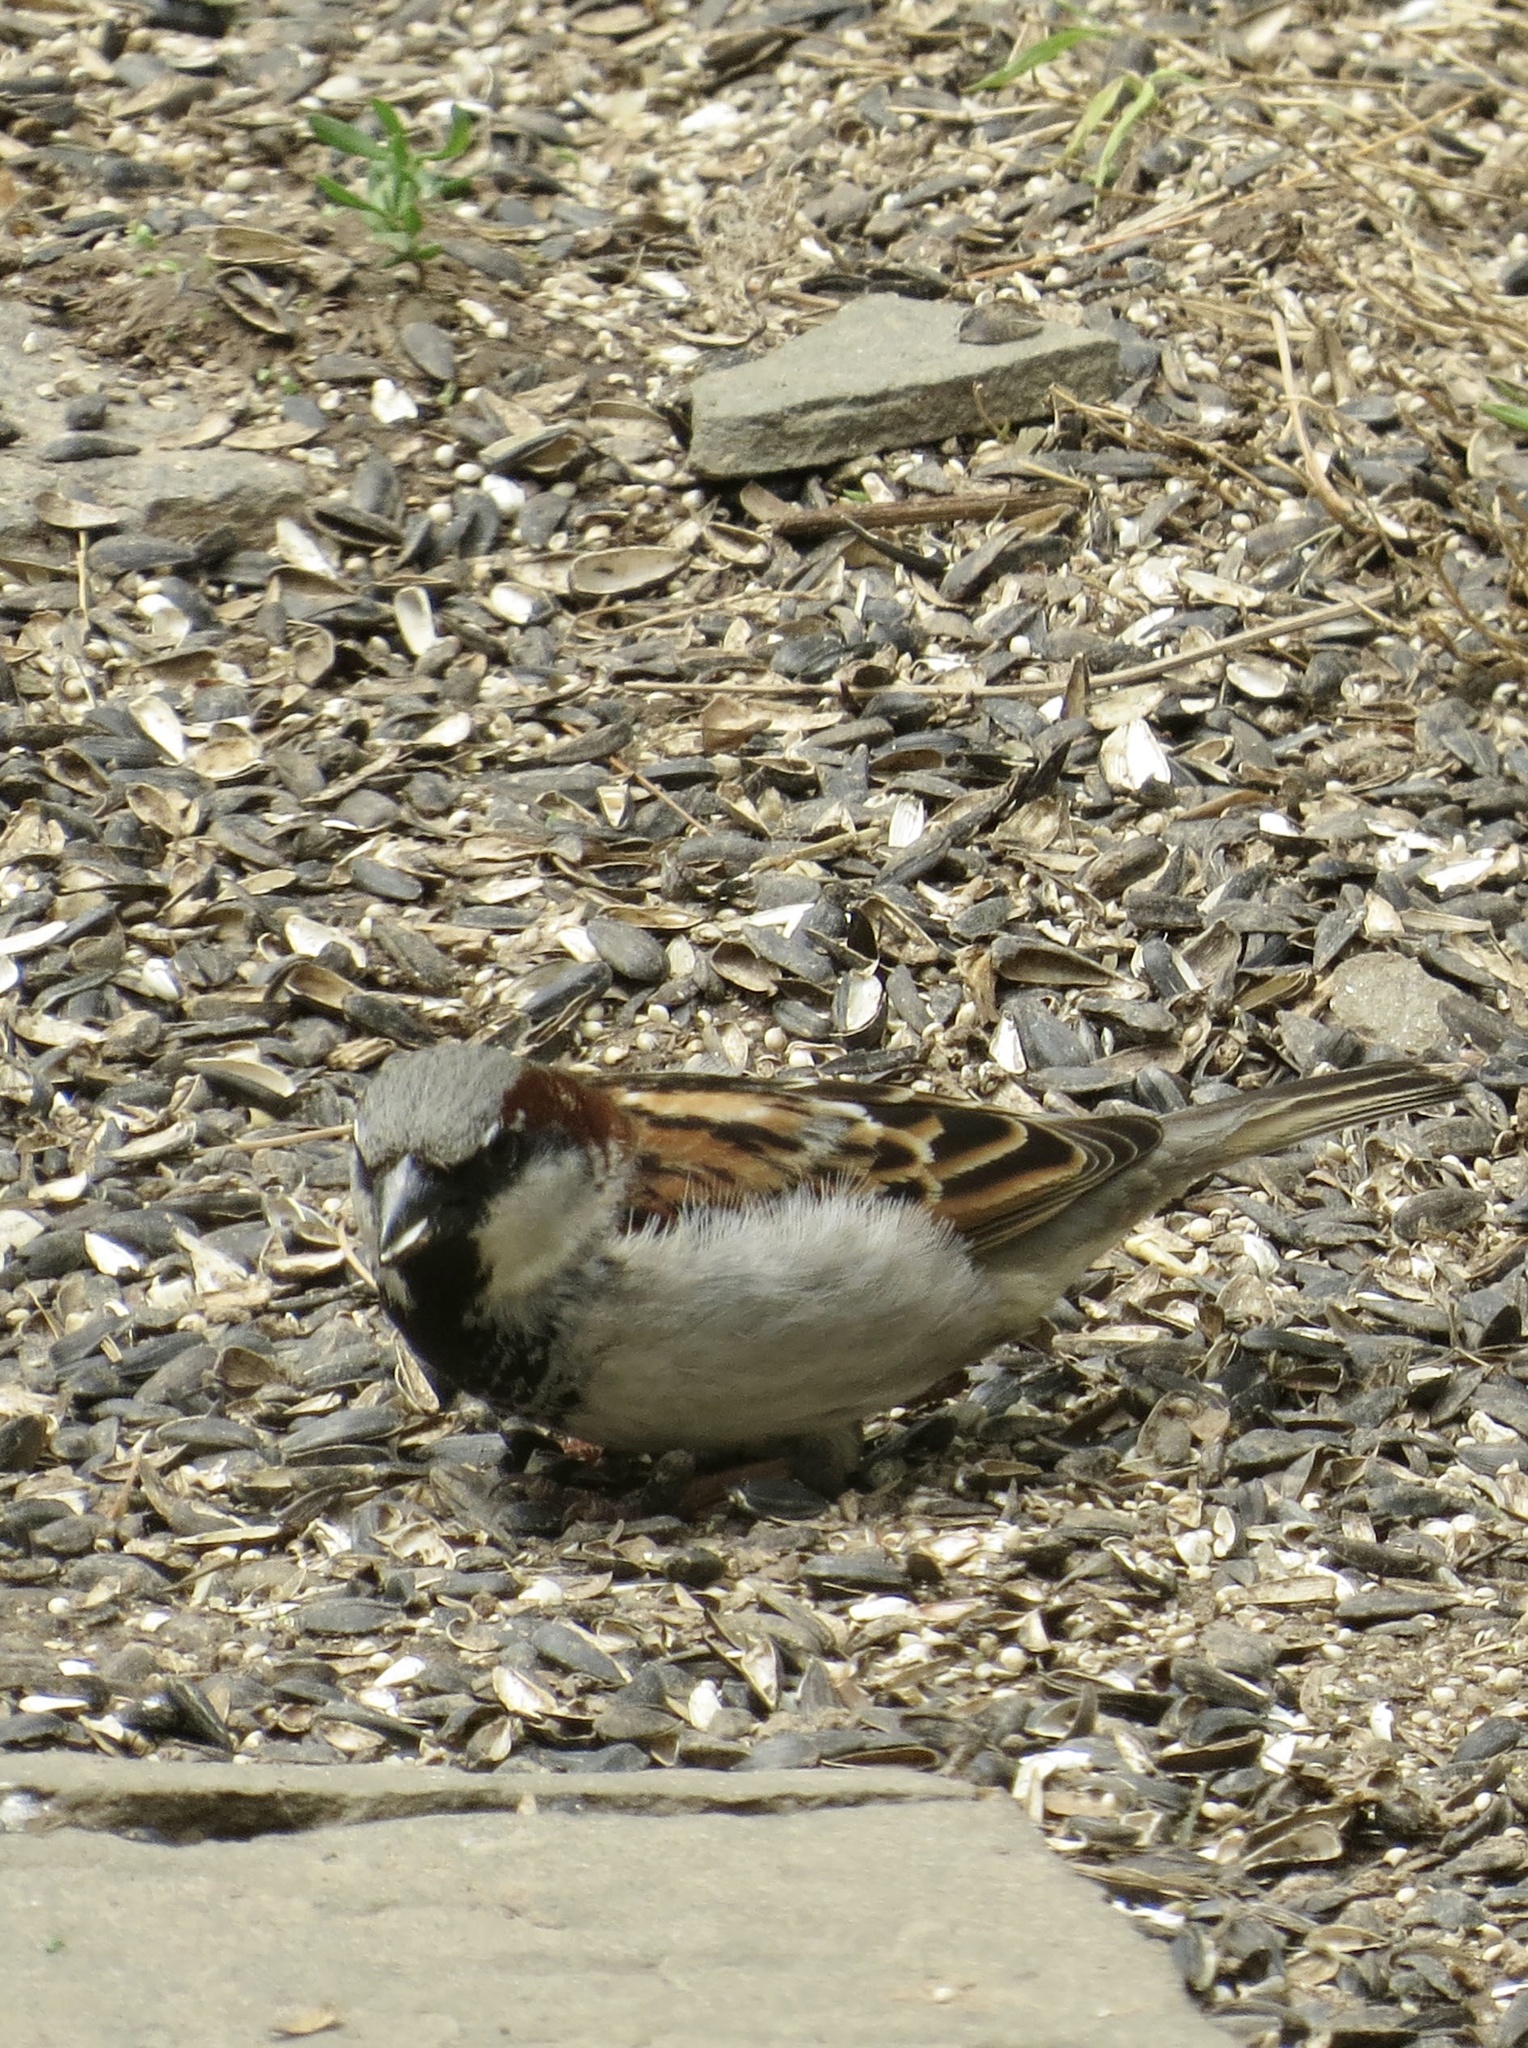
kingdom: Animalia
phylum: Chordata
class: Aves
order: Passeriformes
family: Passeridae
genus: Passer
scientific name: Passer domesticus
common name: House sparrow
